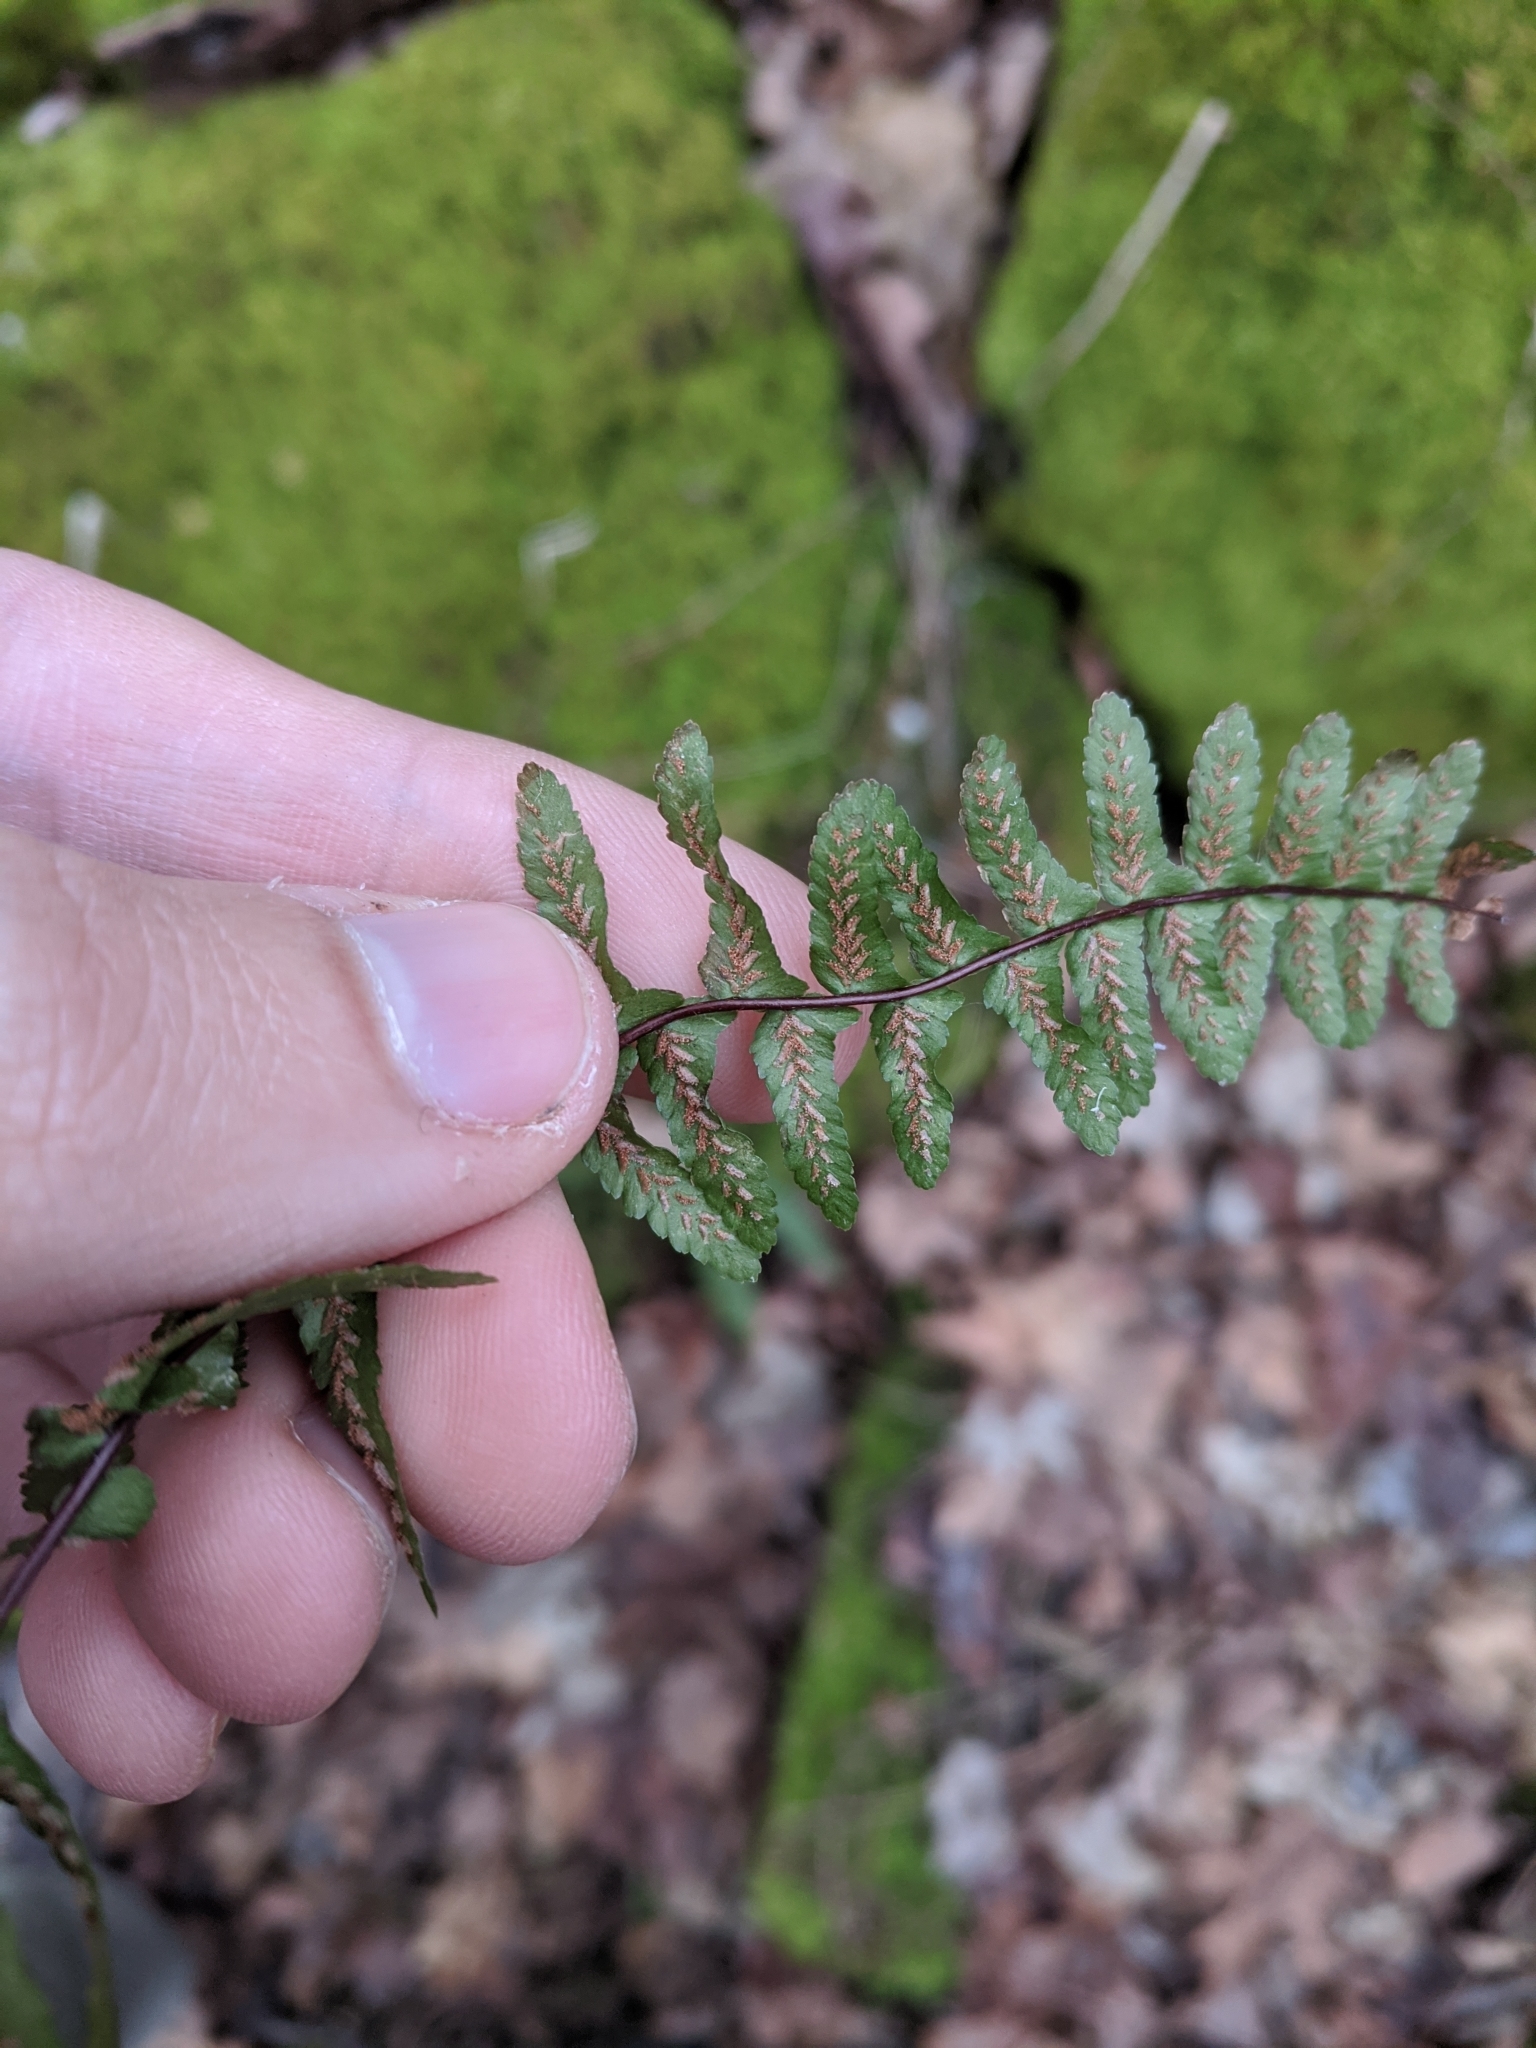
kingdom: Plantae
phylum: Tracheophyta
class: Polypodiopsida
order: Polypodiales
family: Aspleniaceae
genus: Asplenium
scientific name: Asplenium platyneuron
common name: Ebony spleenwort
